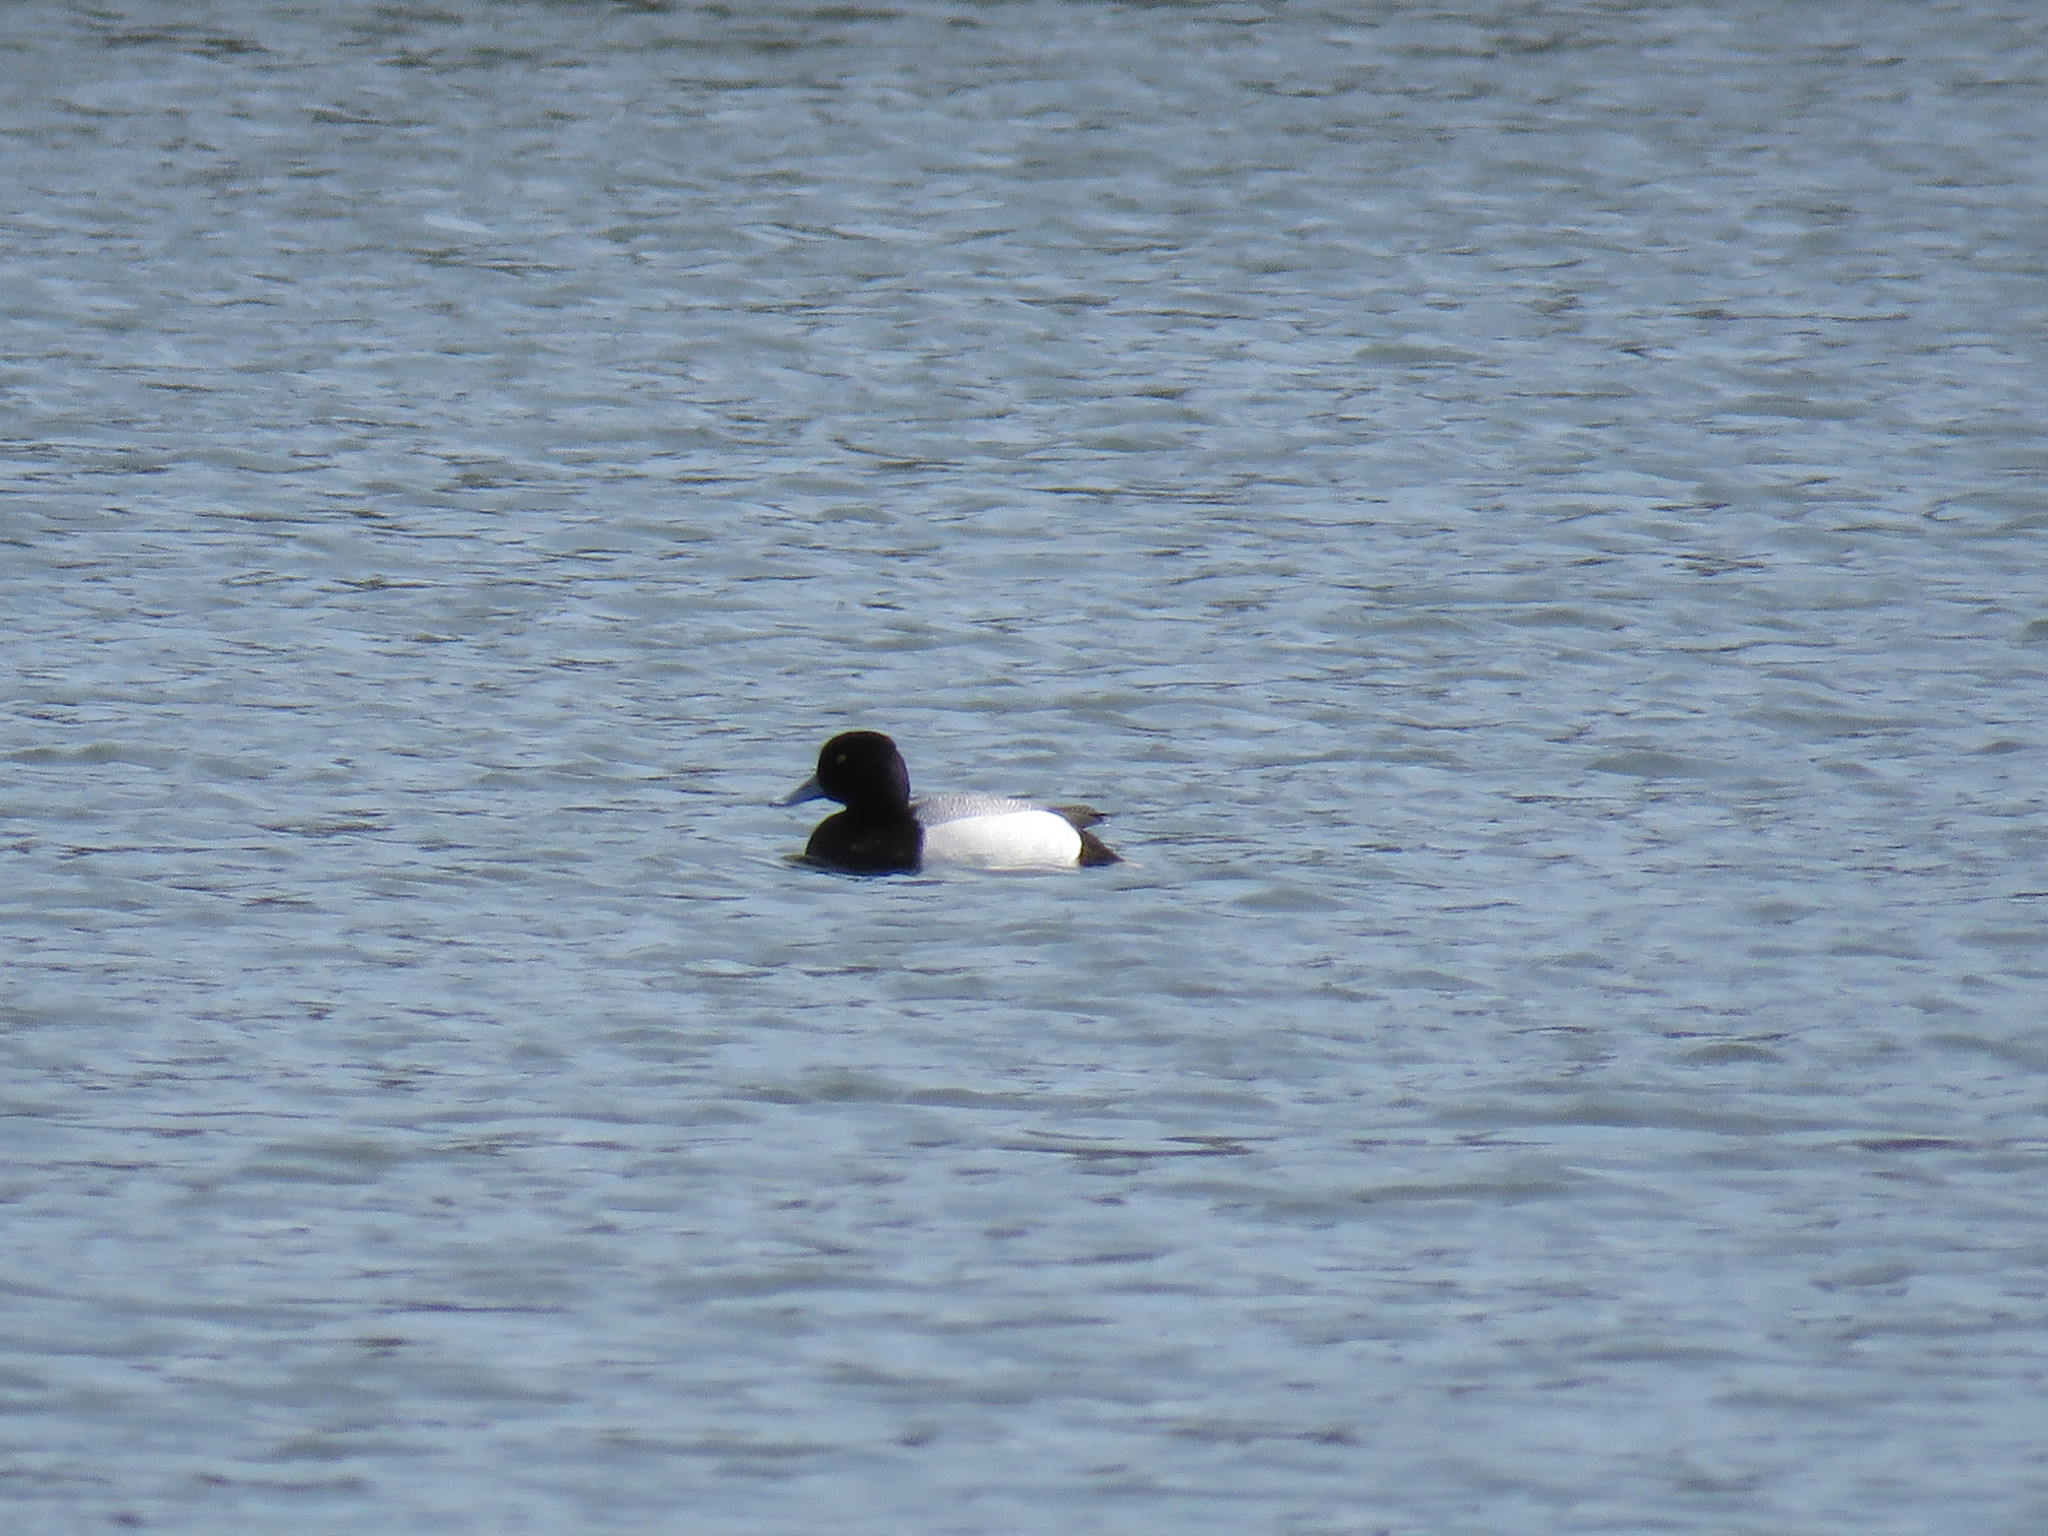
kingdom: Animalia
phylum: Chordata
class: Aves
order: Anseriformes
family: Anatidae
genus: Aythya
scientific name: Aythya affinis
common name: Lesser scaup
